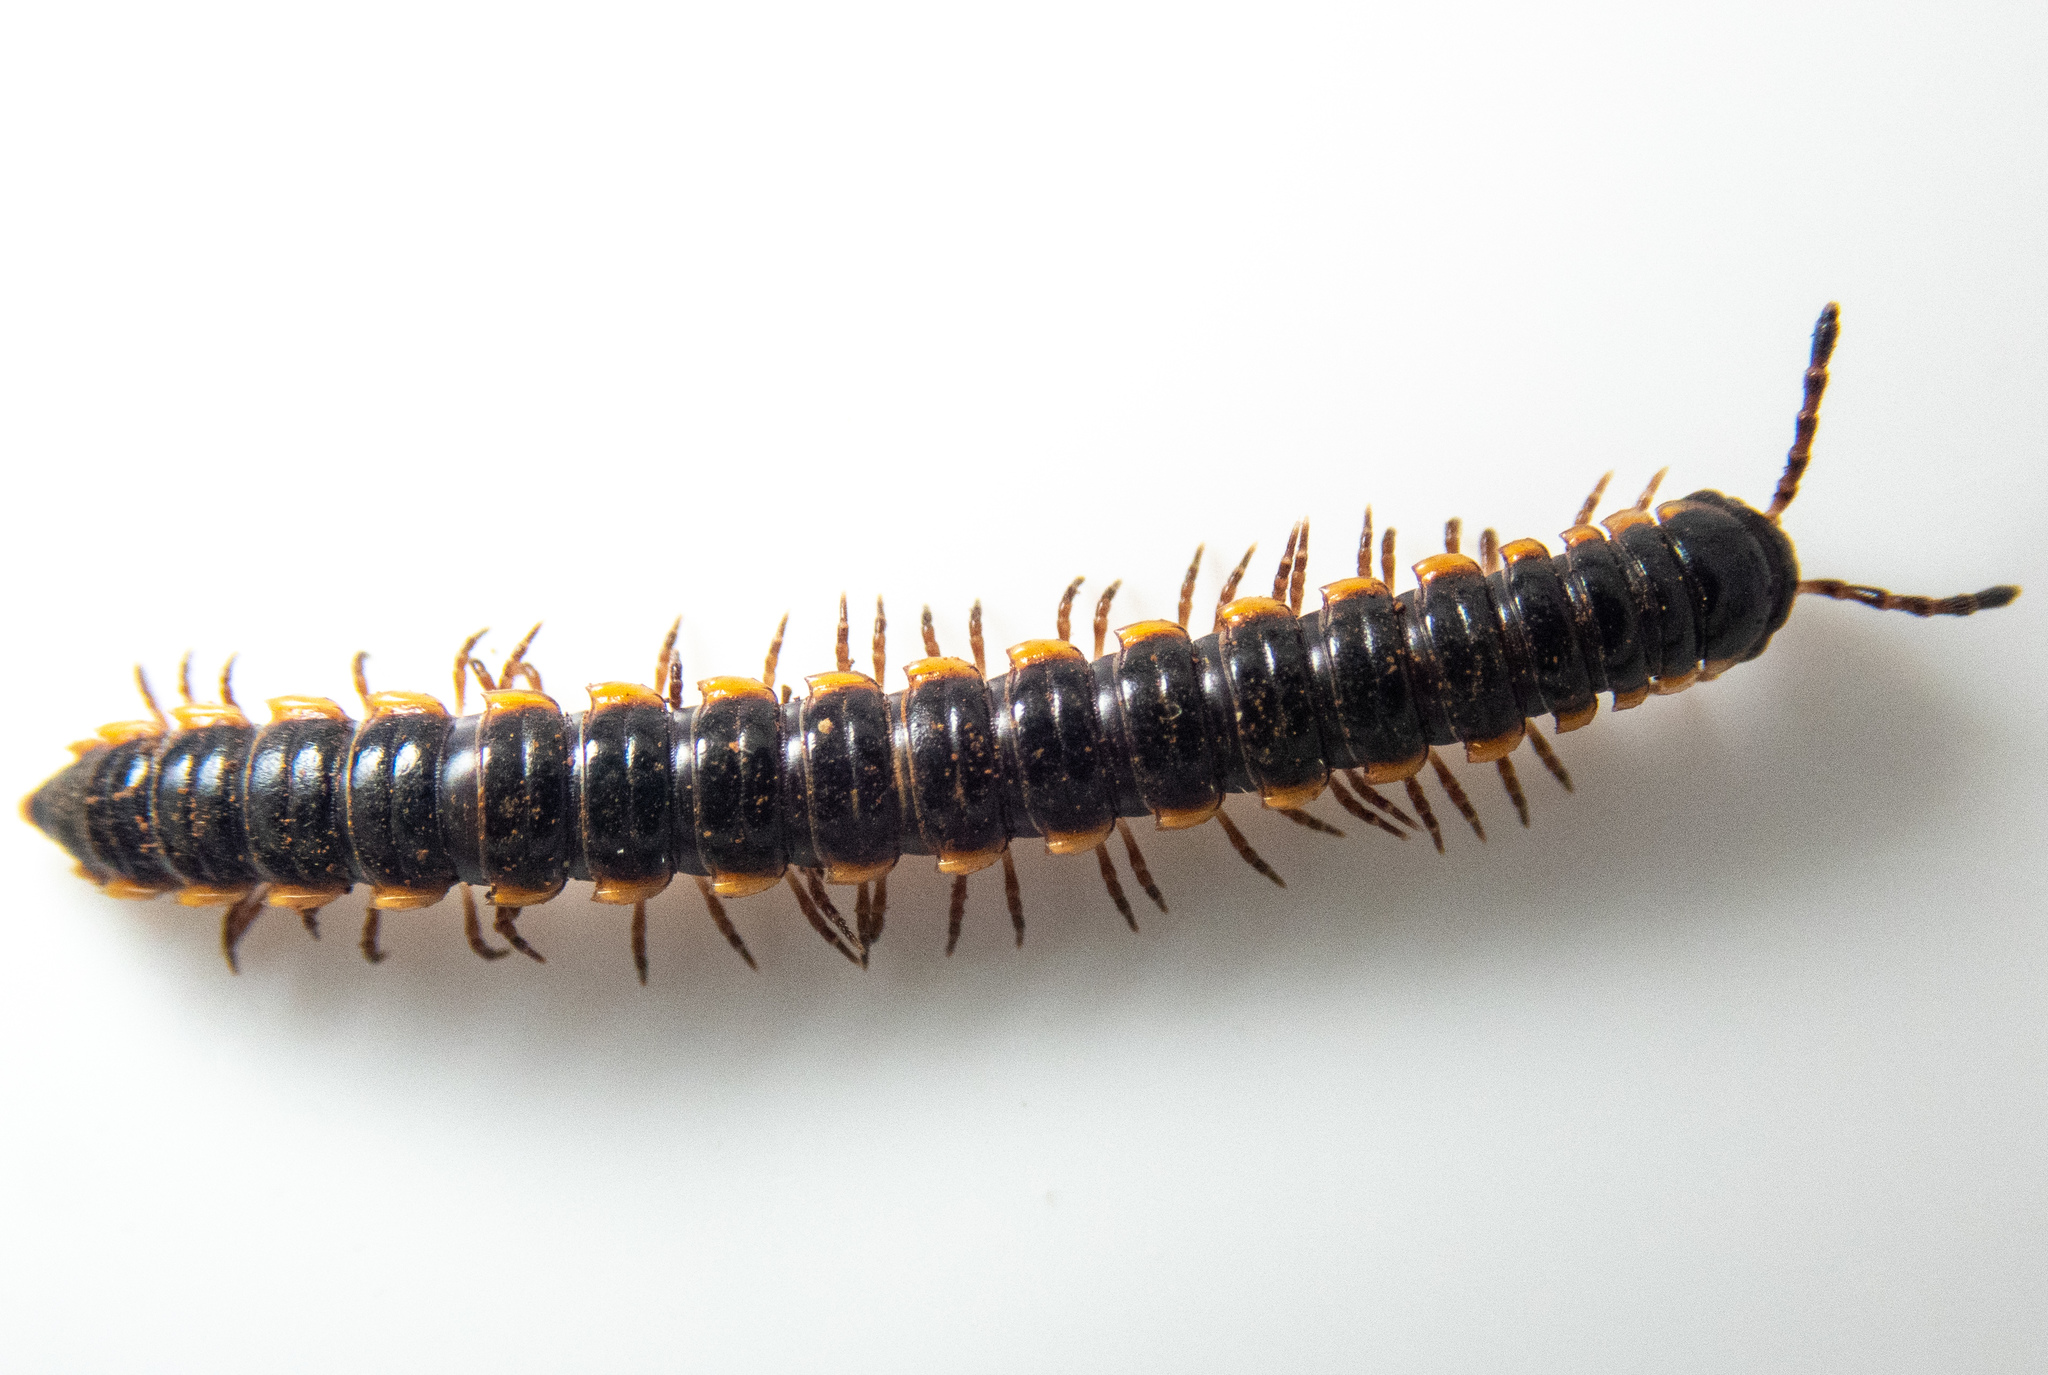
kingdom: Animalia
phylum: Arthropoda
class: Diplopoda
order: Polydesmida
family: Paradoxosomatidae
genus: Orthomorpha
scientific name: Orthomorpha coarctata
